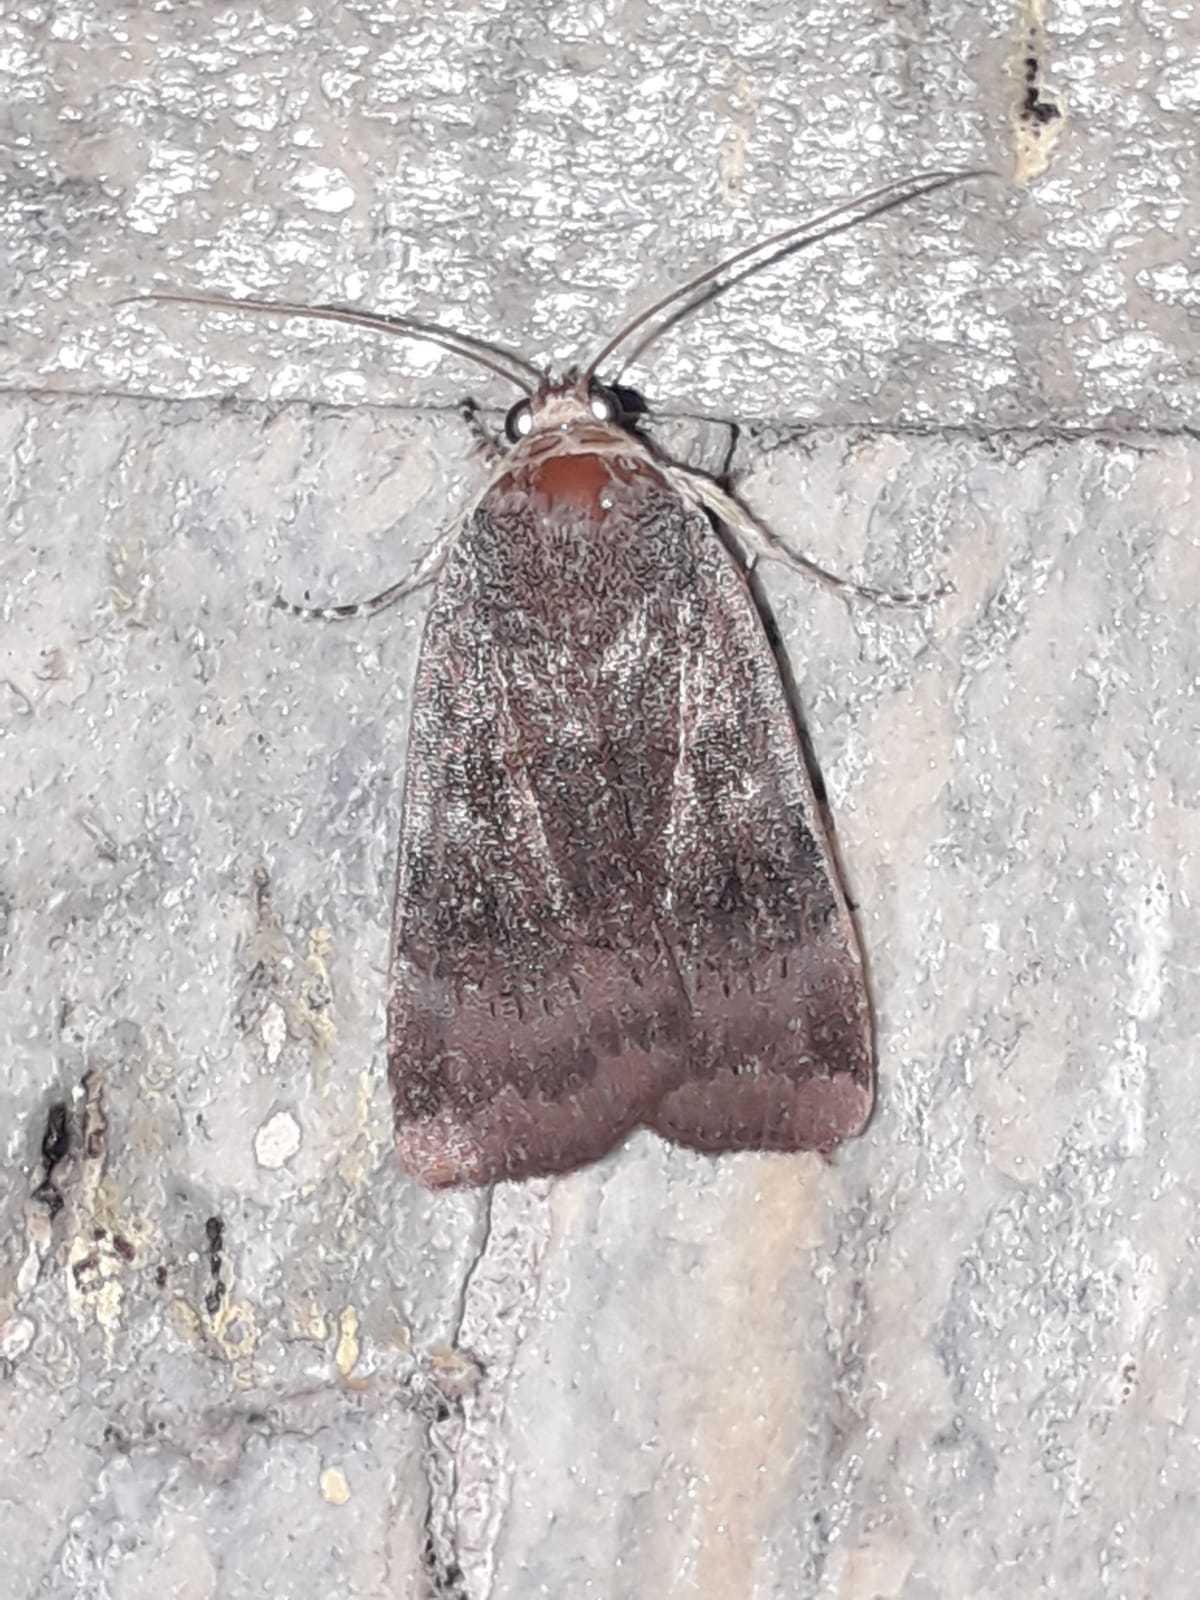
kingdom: Animalia
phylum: Arthropoda
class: Insecta
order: Lepidoptera
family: Noctuidae
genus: Noctua
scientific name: Noctua
